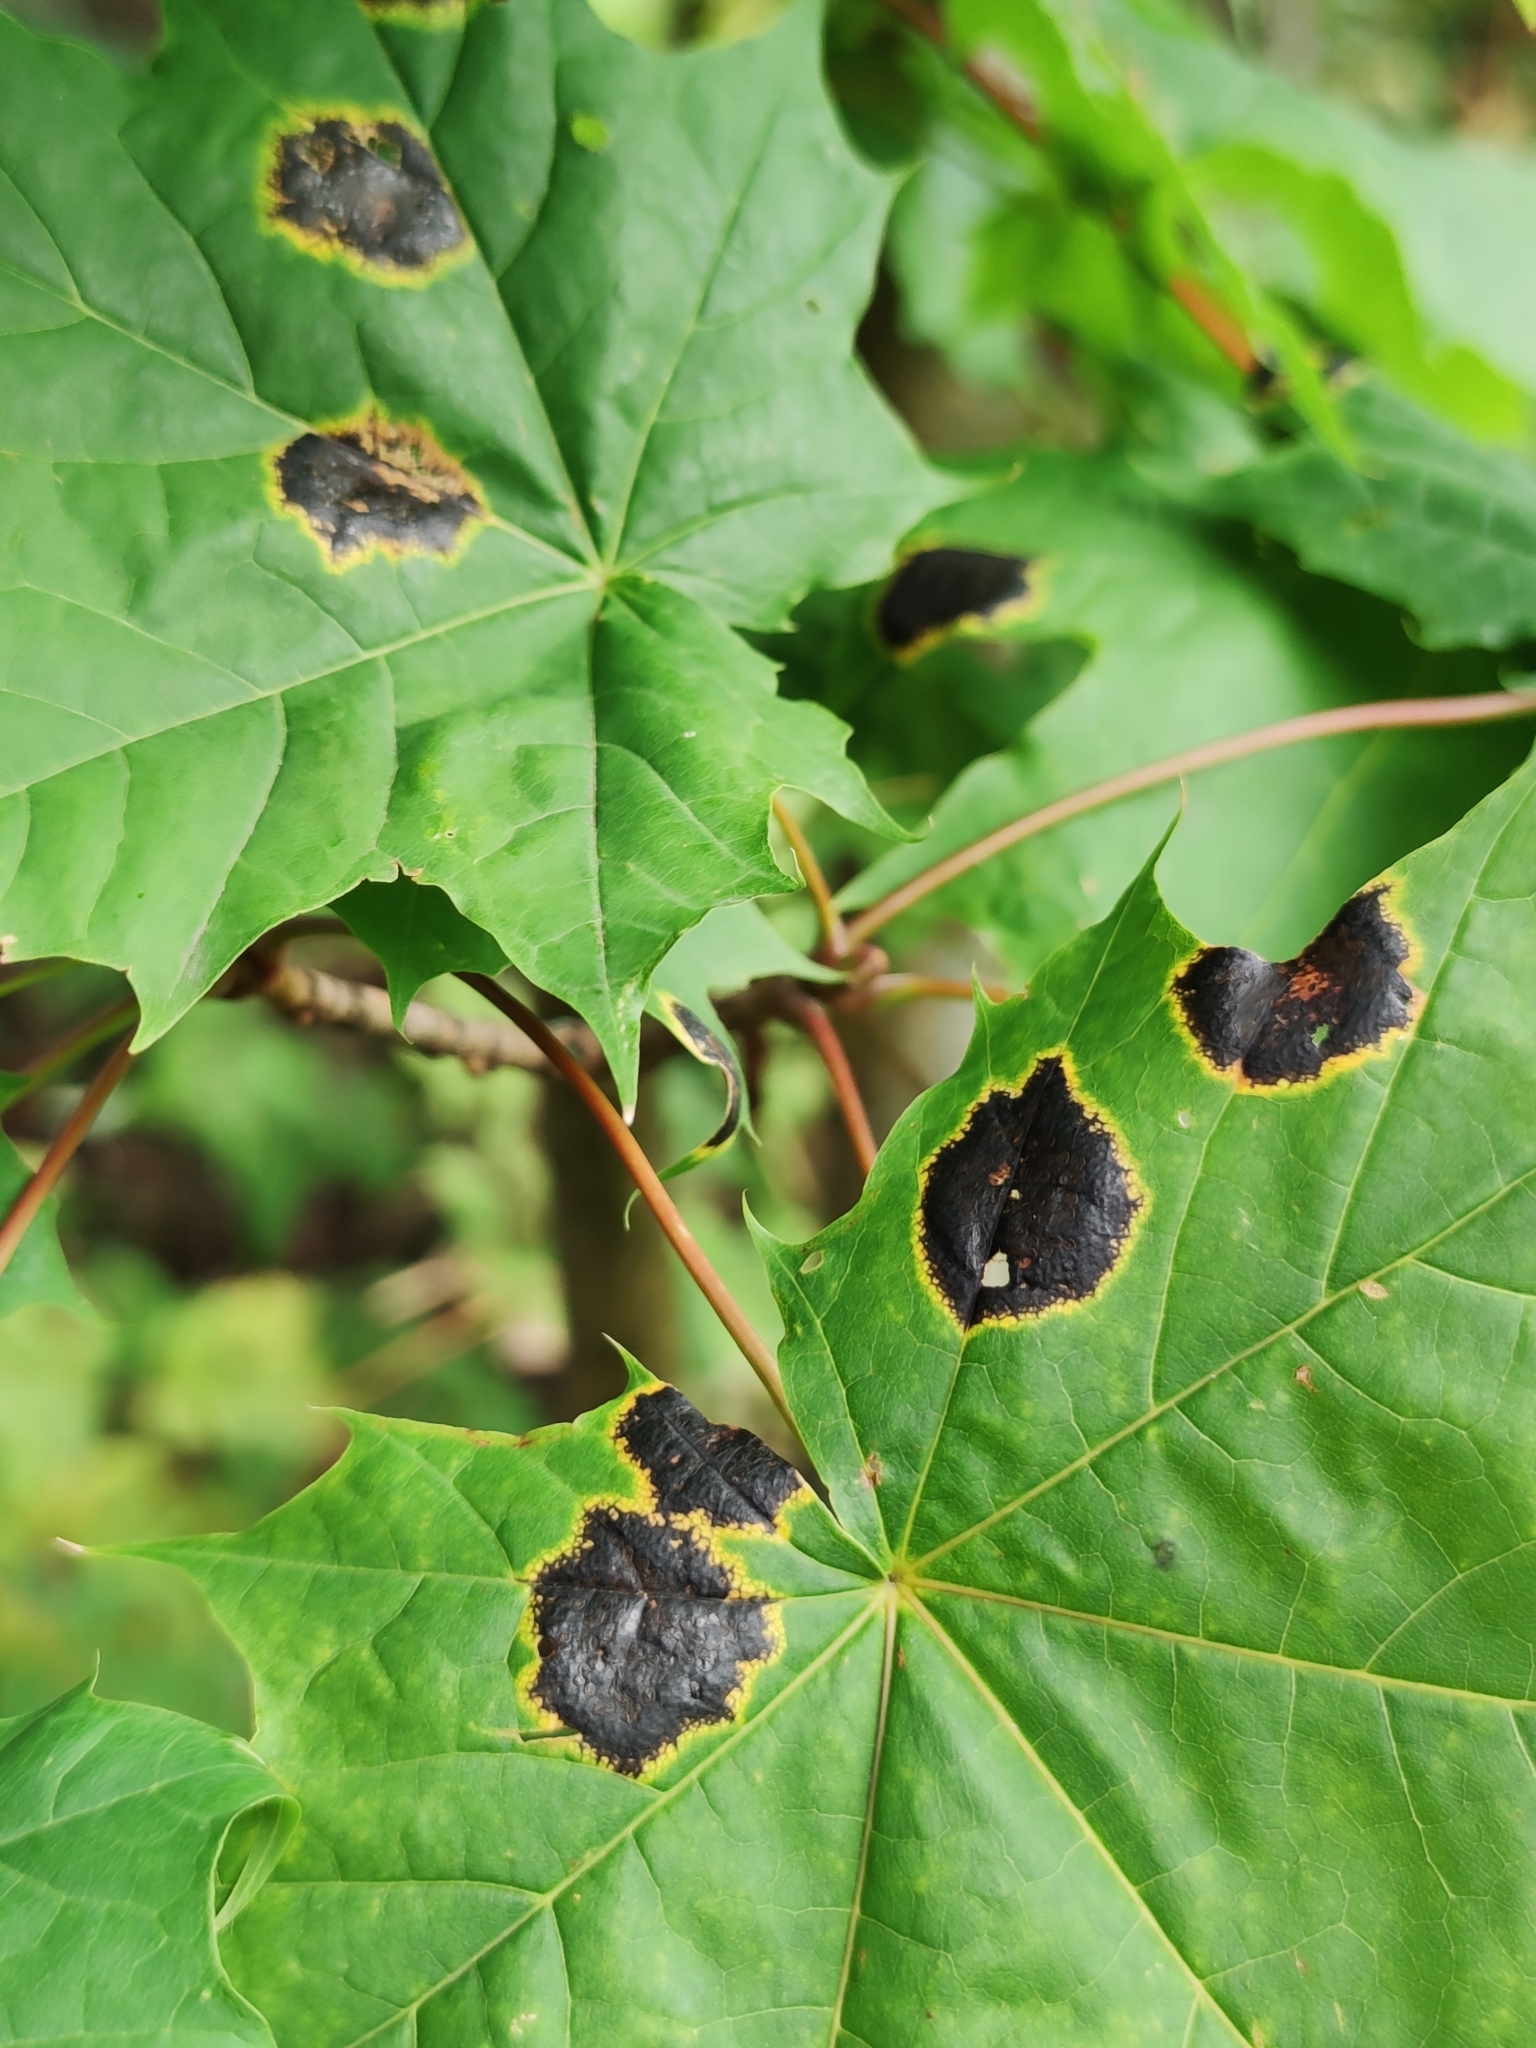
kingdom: Fungi
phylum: Ascomycota
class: Leotiomycetes
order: Rhytismatales
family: Rhytismataceae
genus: Rhytisma
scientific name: Rhytisma acerinum
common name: European tar spot
